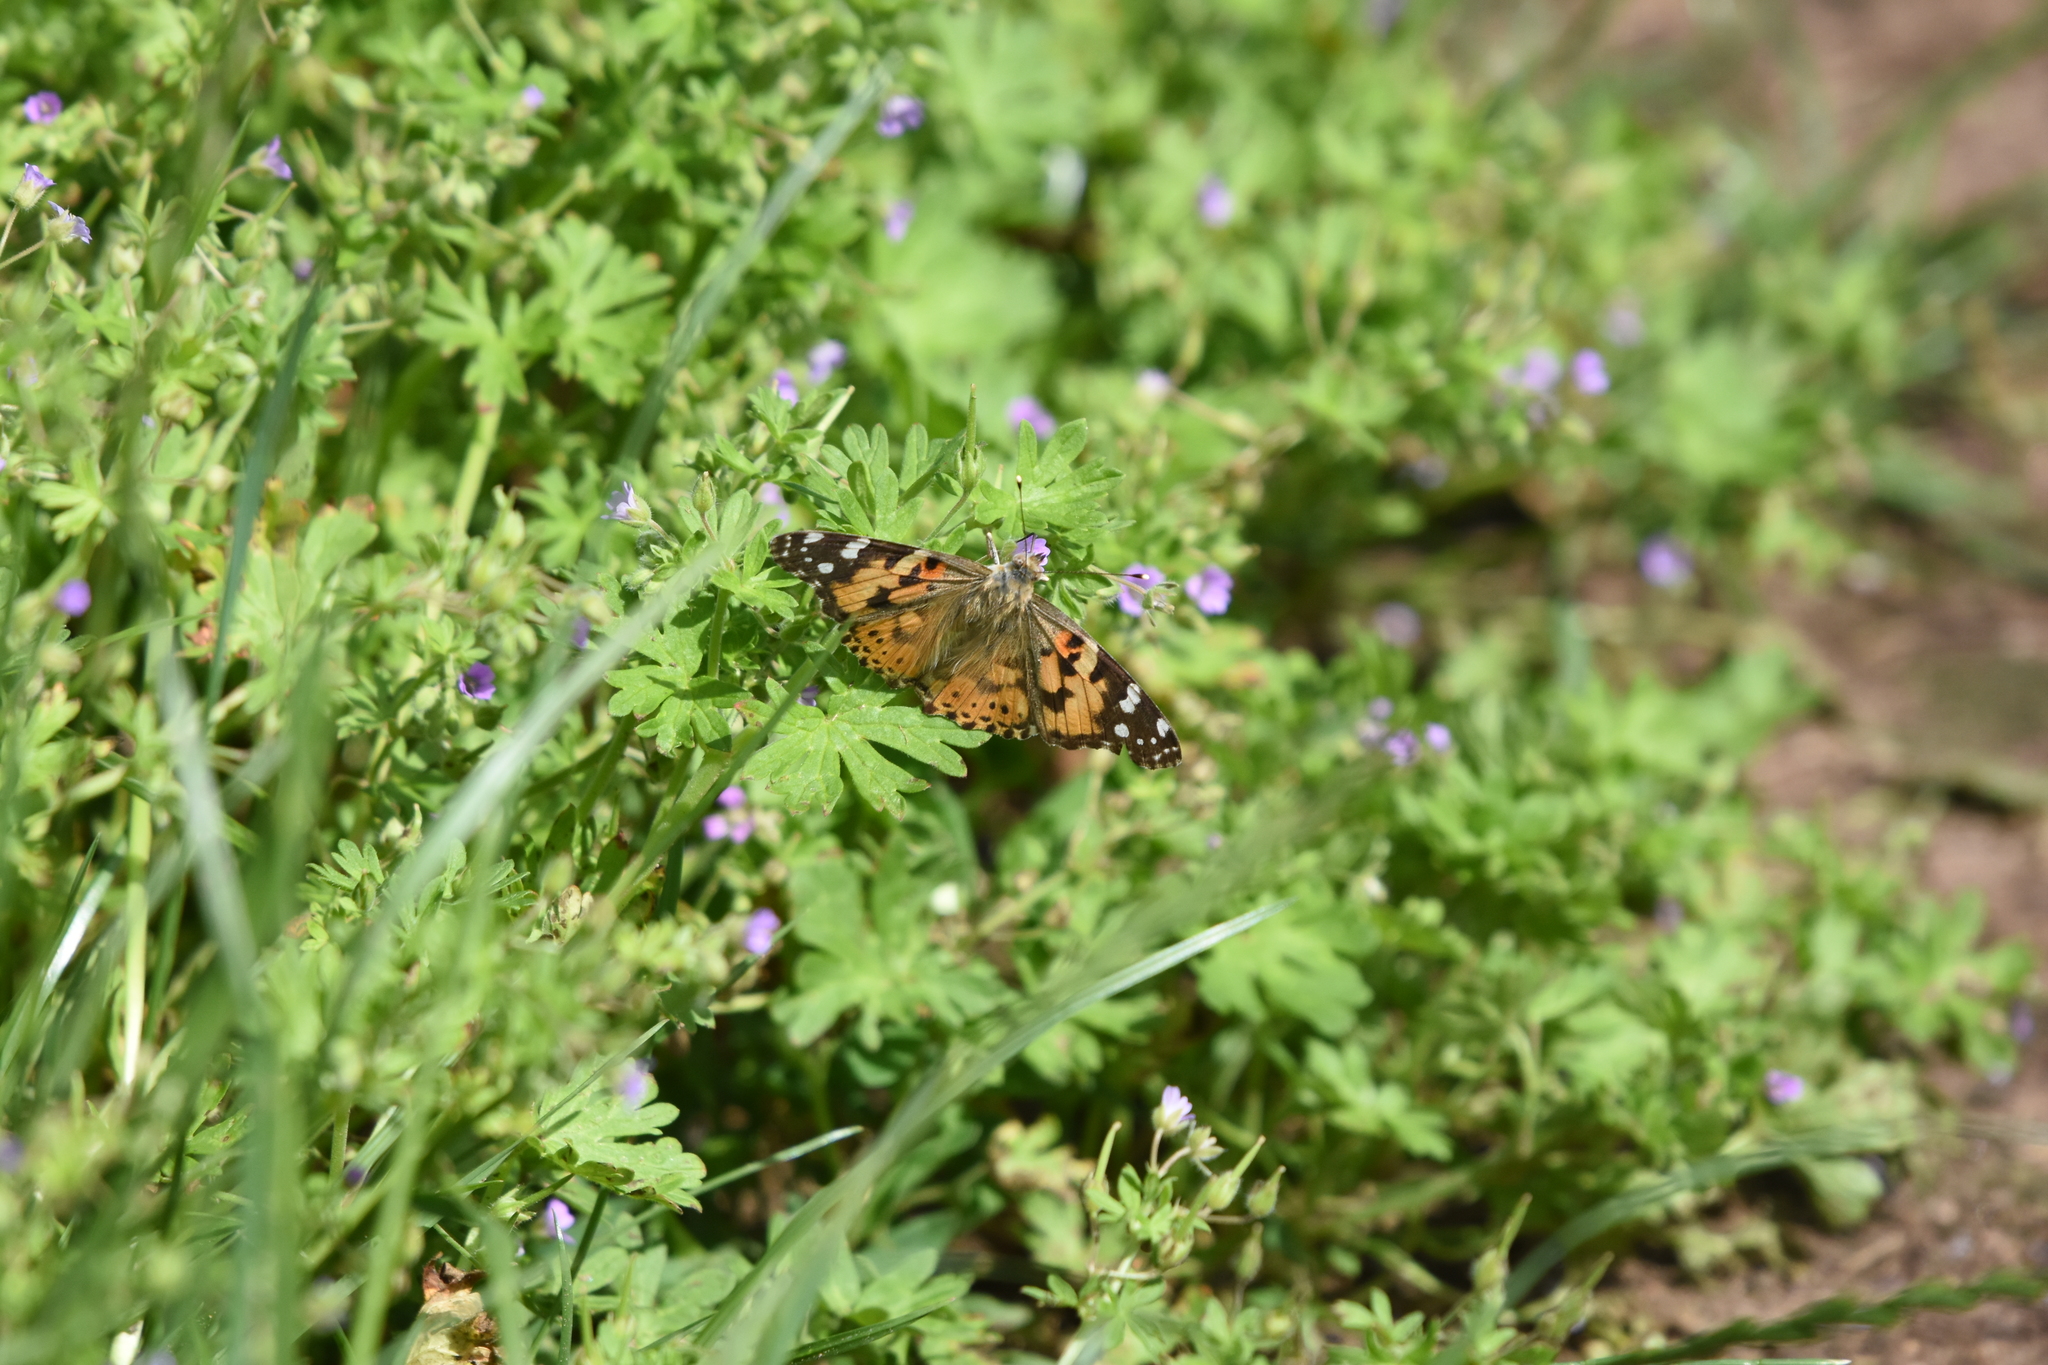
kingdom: Animalia
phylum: Arthropoda
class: Insecta
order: Lepidoptera
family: Nymphalidae
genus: Vanessa
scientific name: Vanessa cardui
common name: Painted lady
